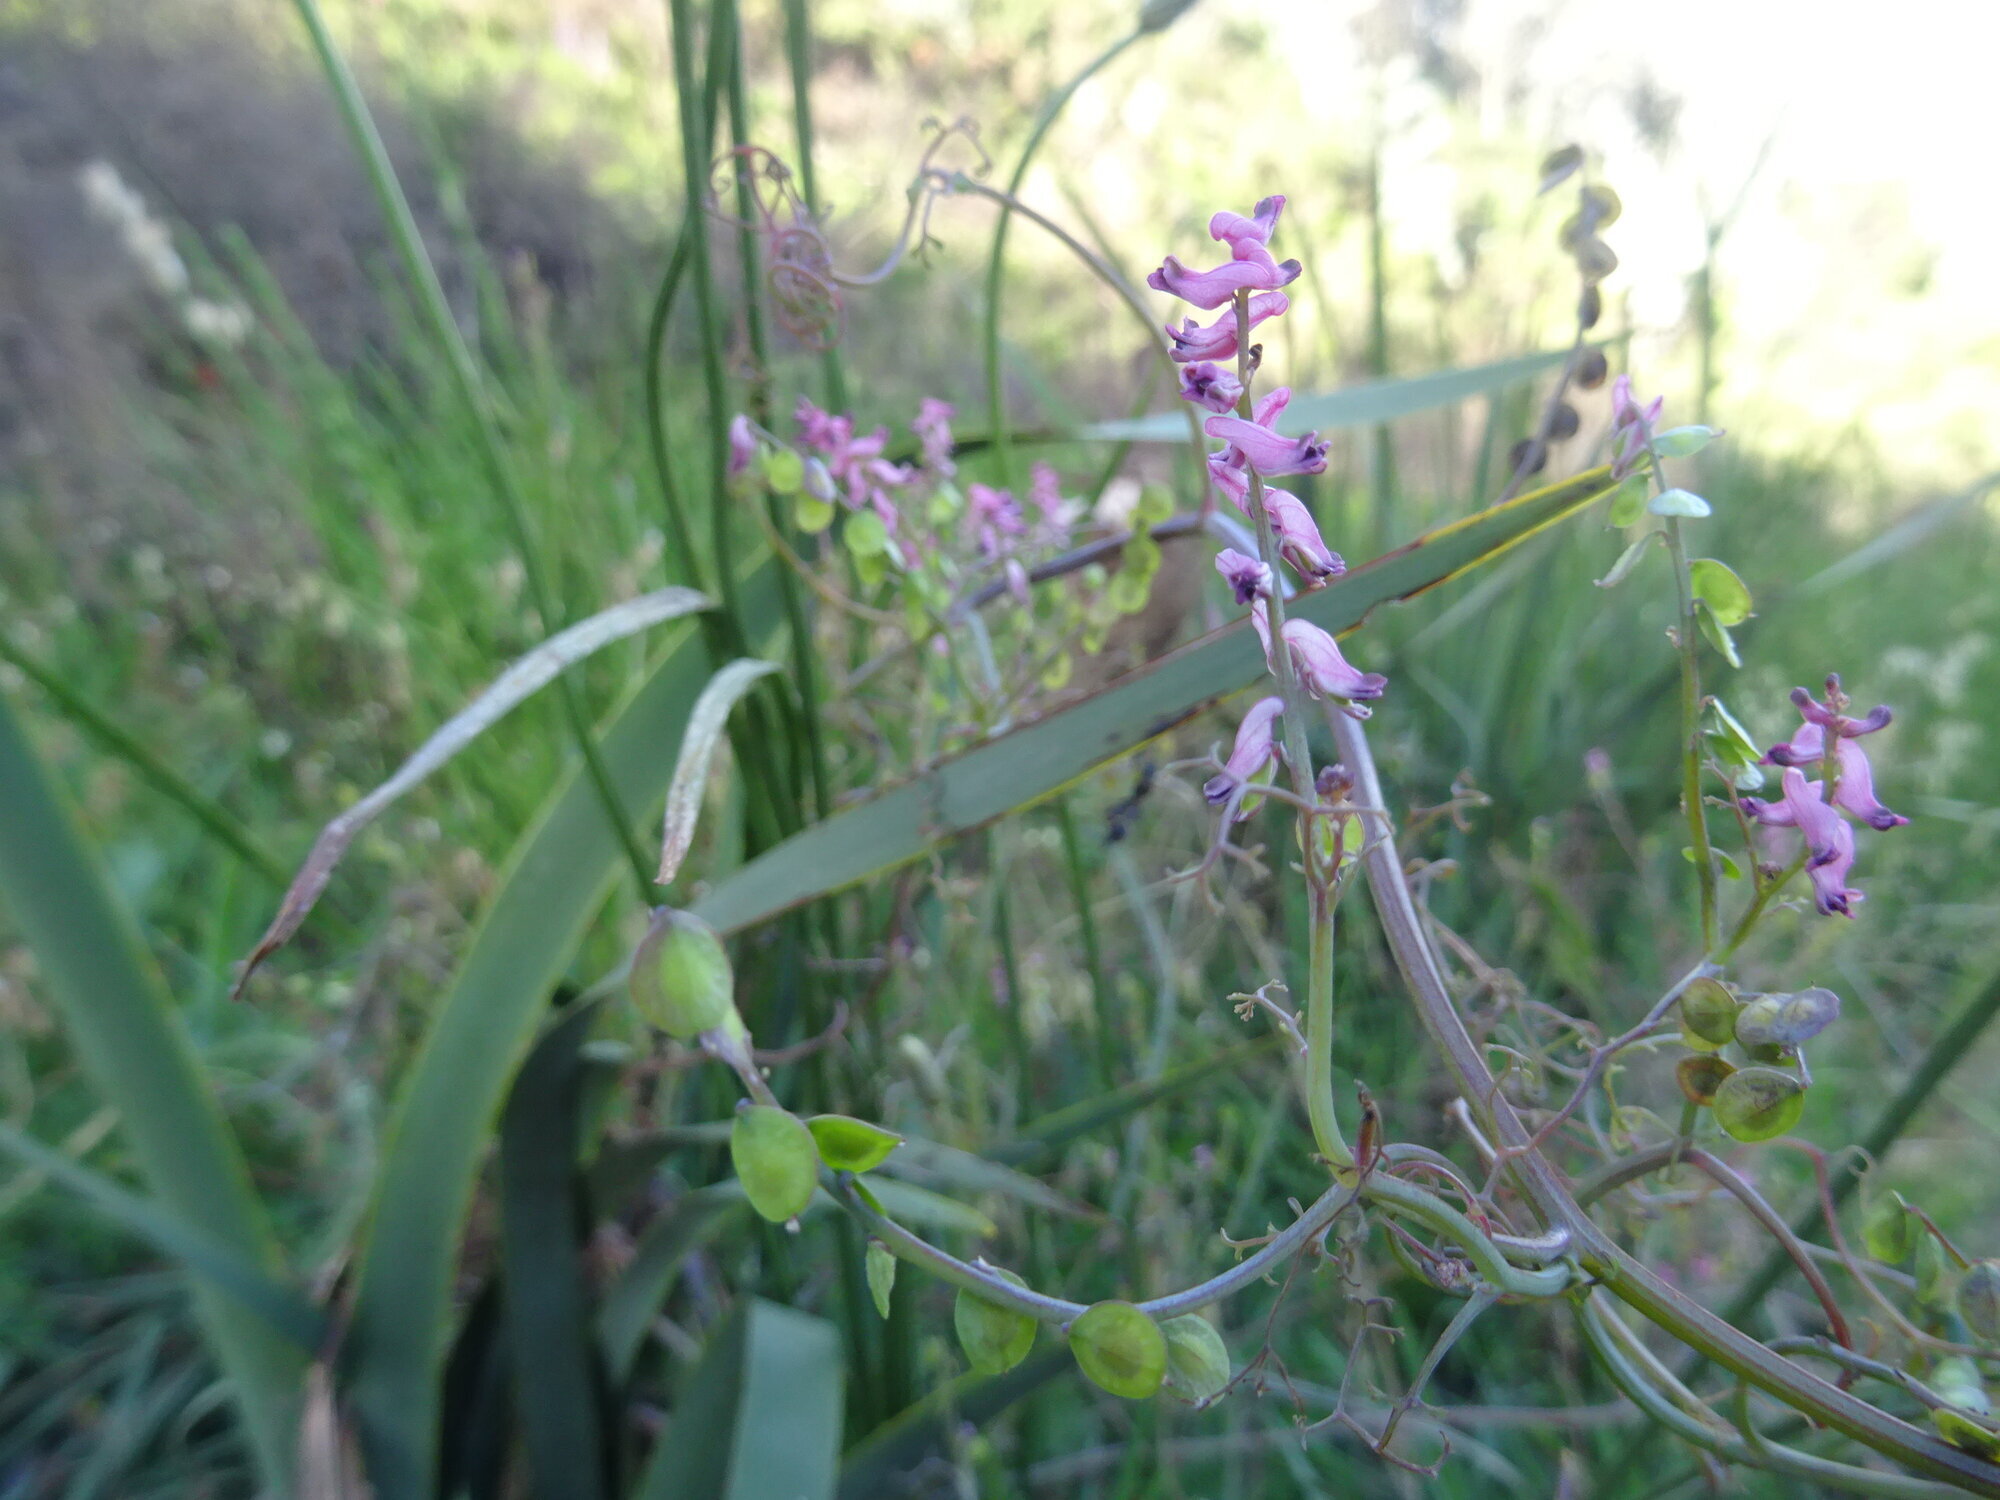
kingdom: Plantae
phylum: Tracheophyta
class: Magnoliopsida
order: Ranunculales
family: Papaveraceae
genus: Discocapnos
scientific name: Discocapnos mundti
